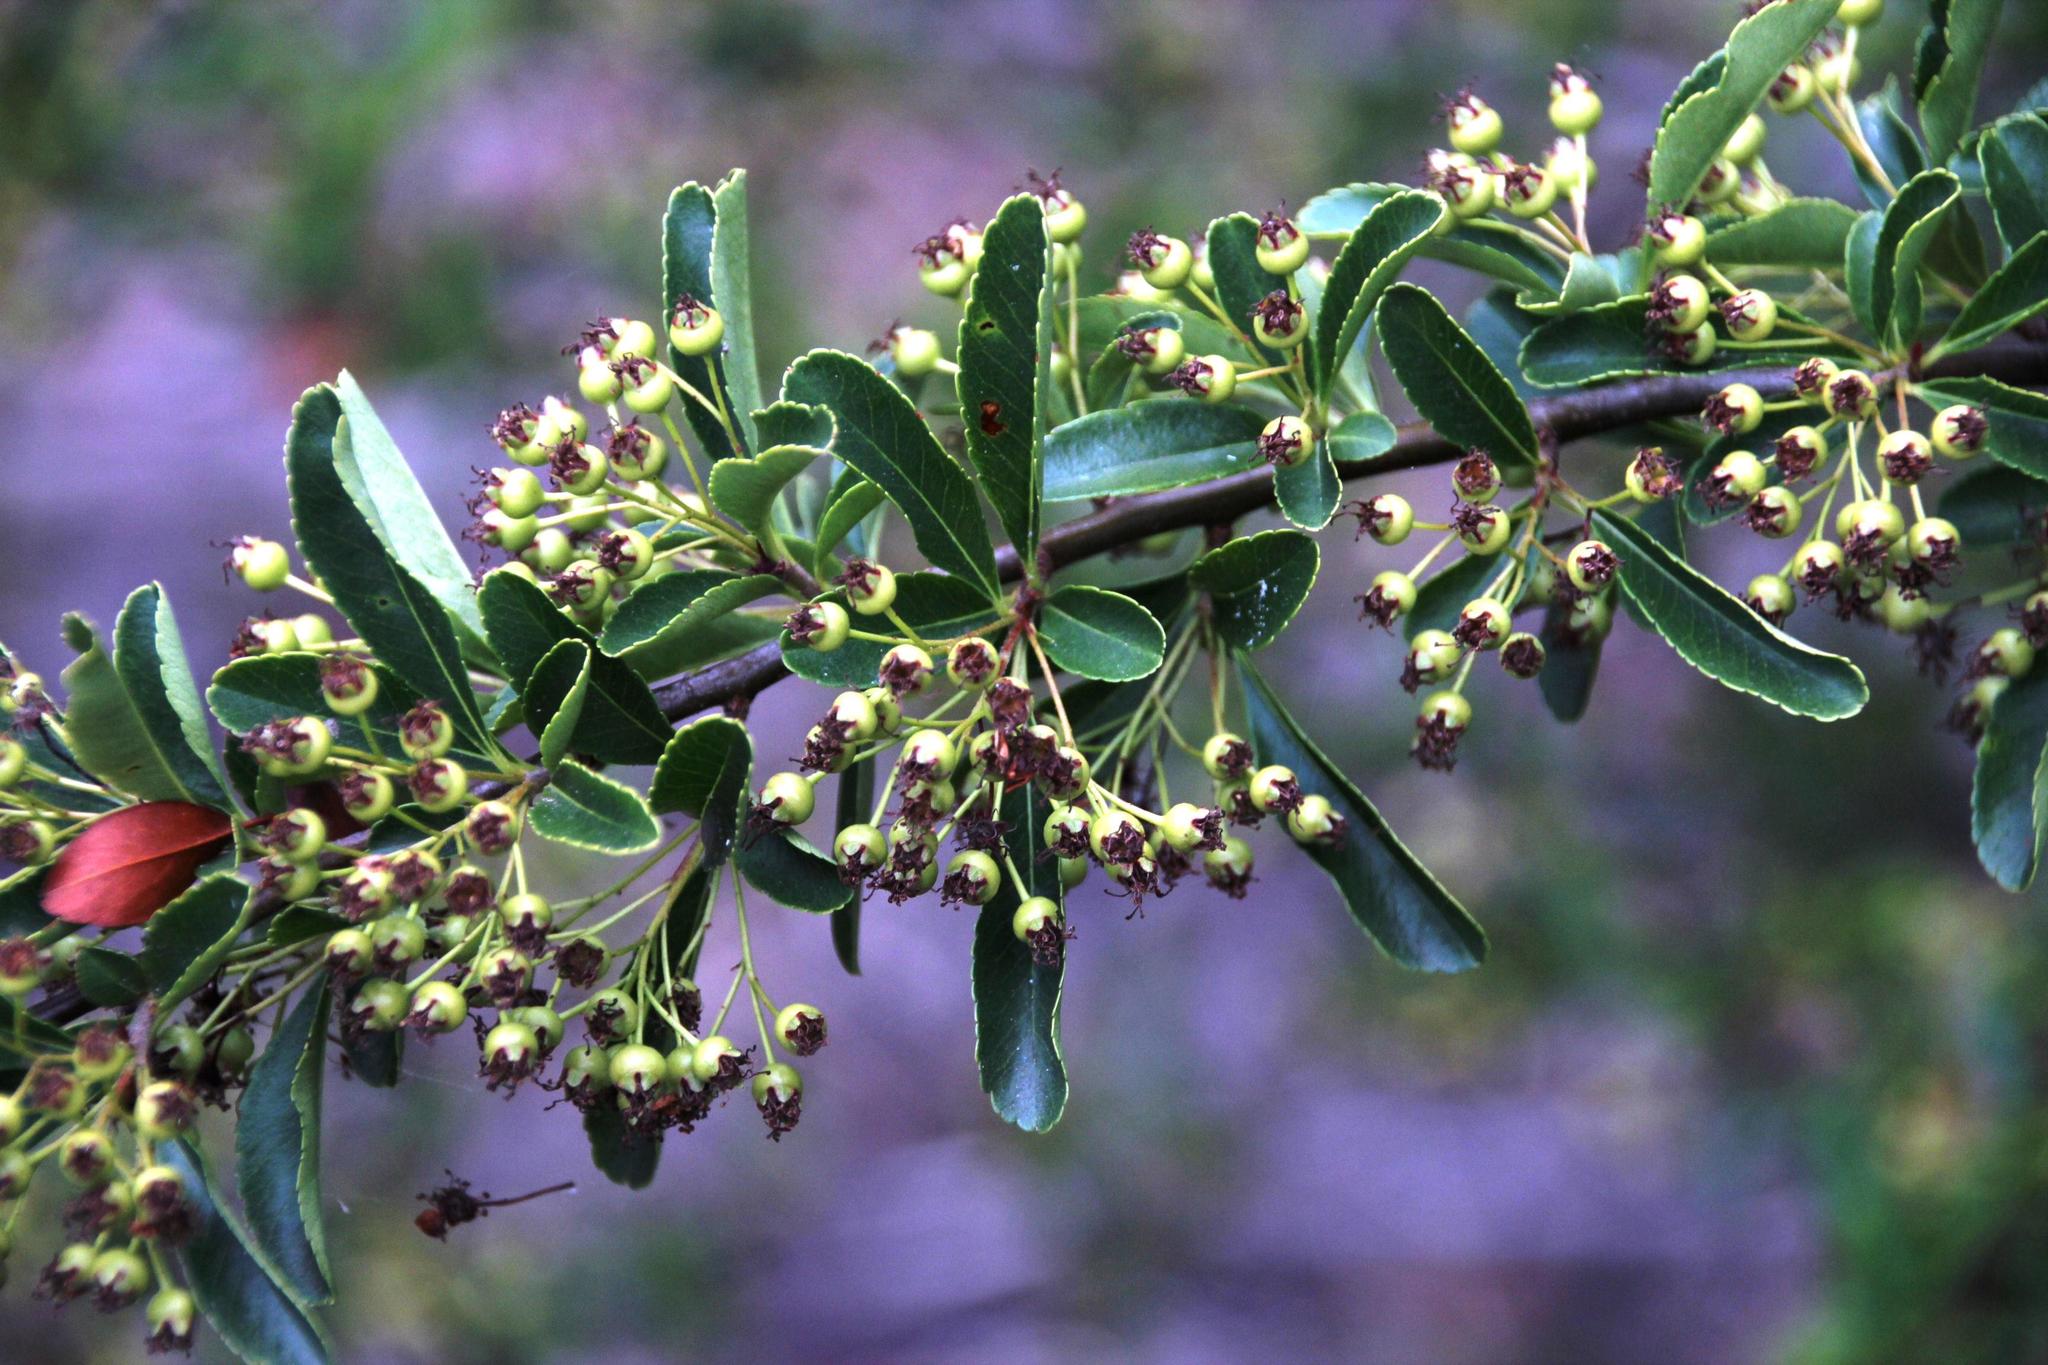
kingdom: Plantae
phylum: Tracheophyta
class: Magnoliopsida
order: Rosales
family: Rosaceae
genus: Pyracantha
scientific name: Pyracantha coccinea
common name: Firethorn
